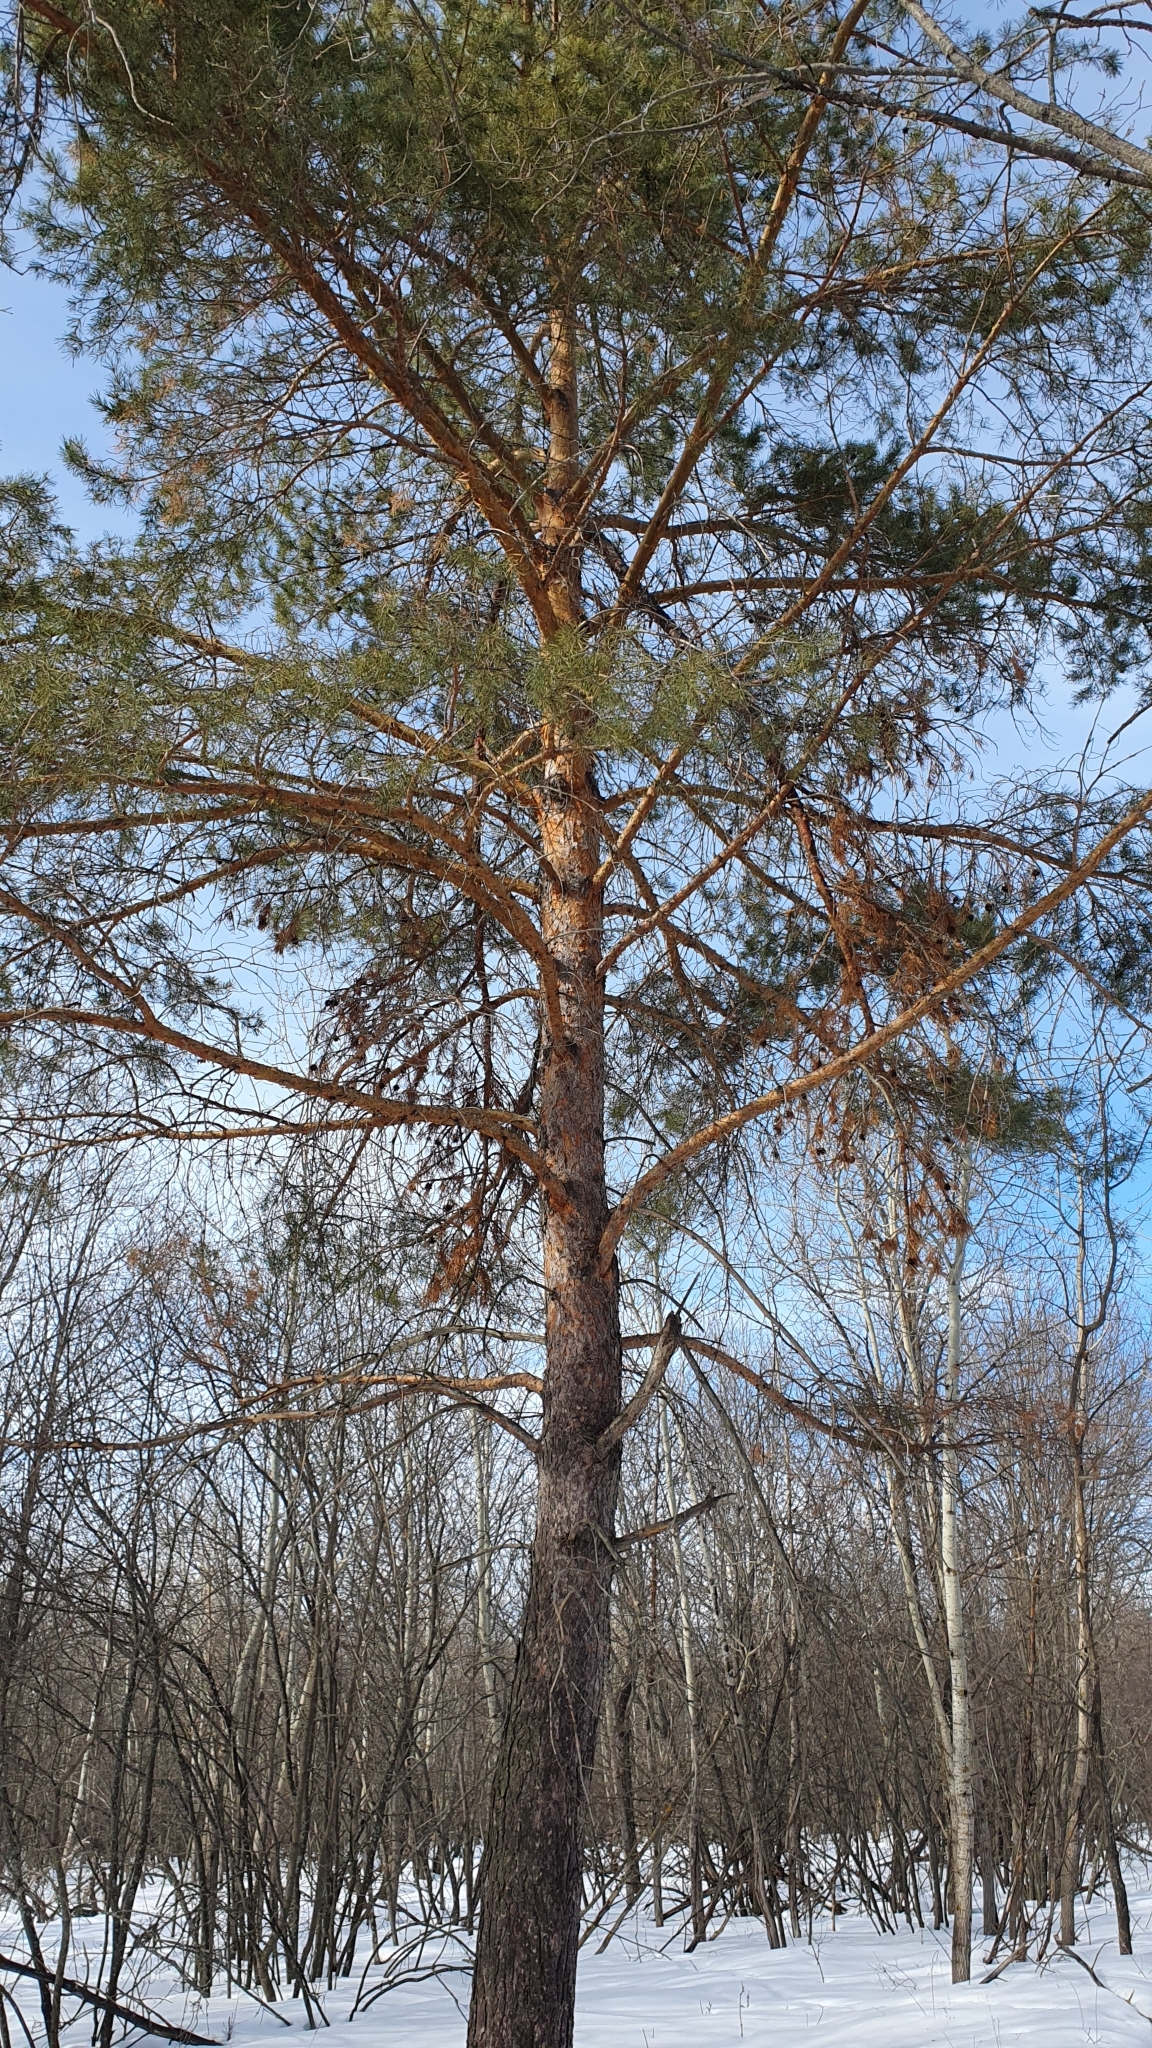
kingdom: Plantae
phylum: Tracheophyta
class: Pinopsida
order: Pinales
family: Pinaceae
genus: Pinus
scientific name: Pinus sylvestris
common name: Scots pine
